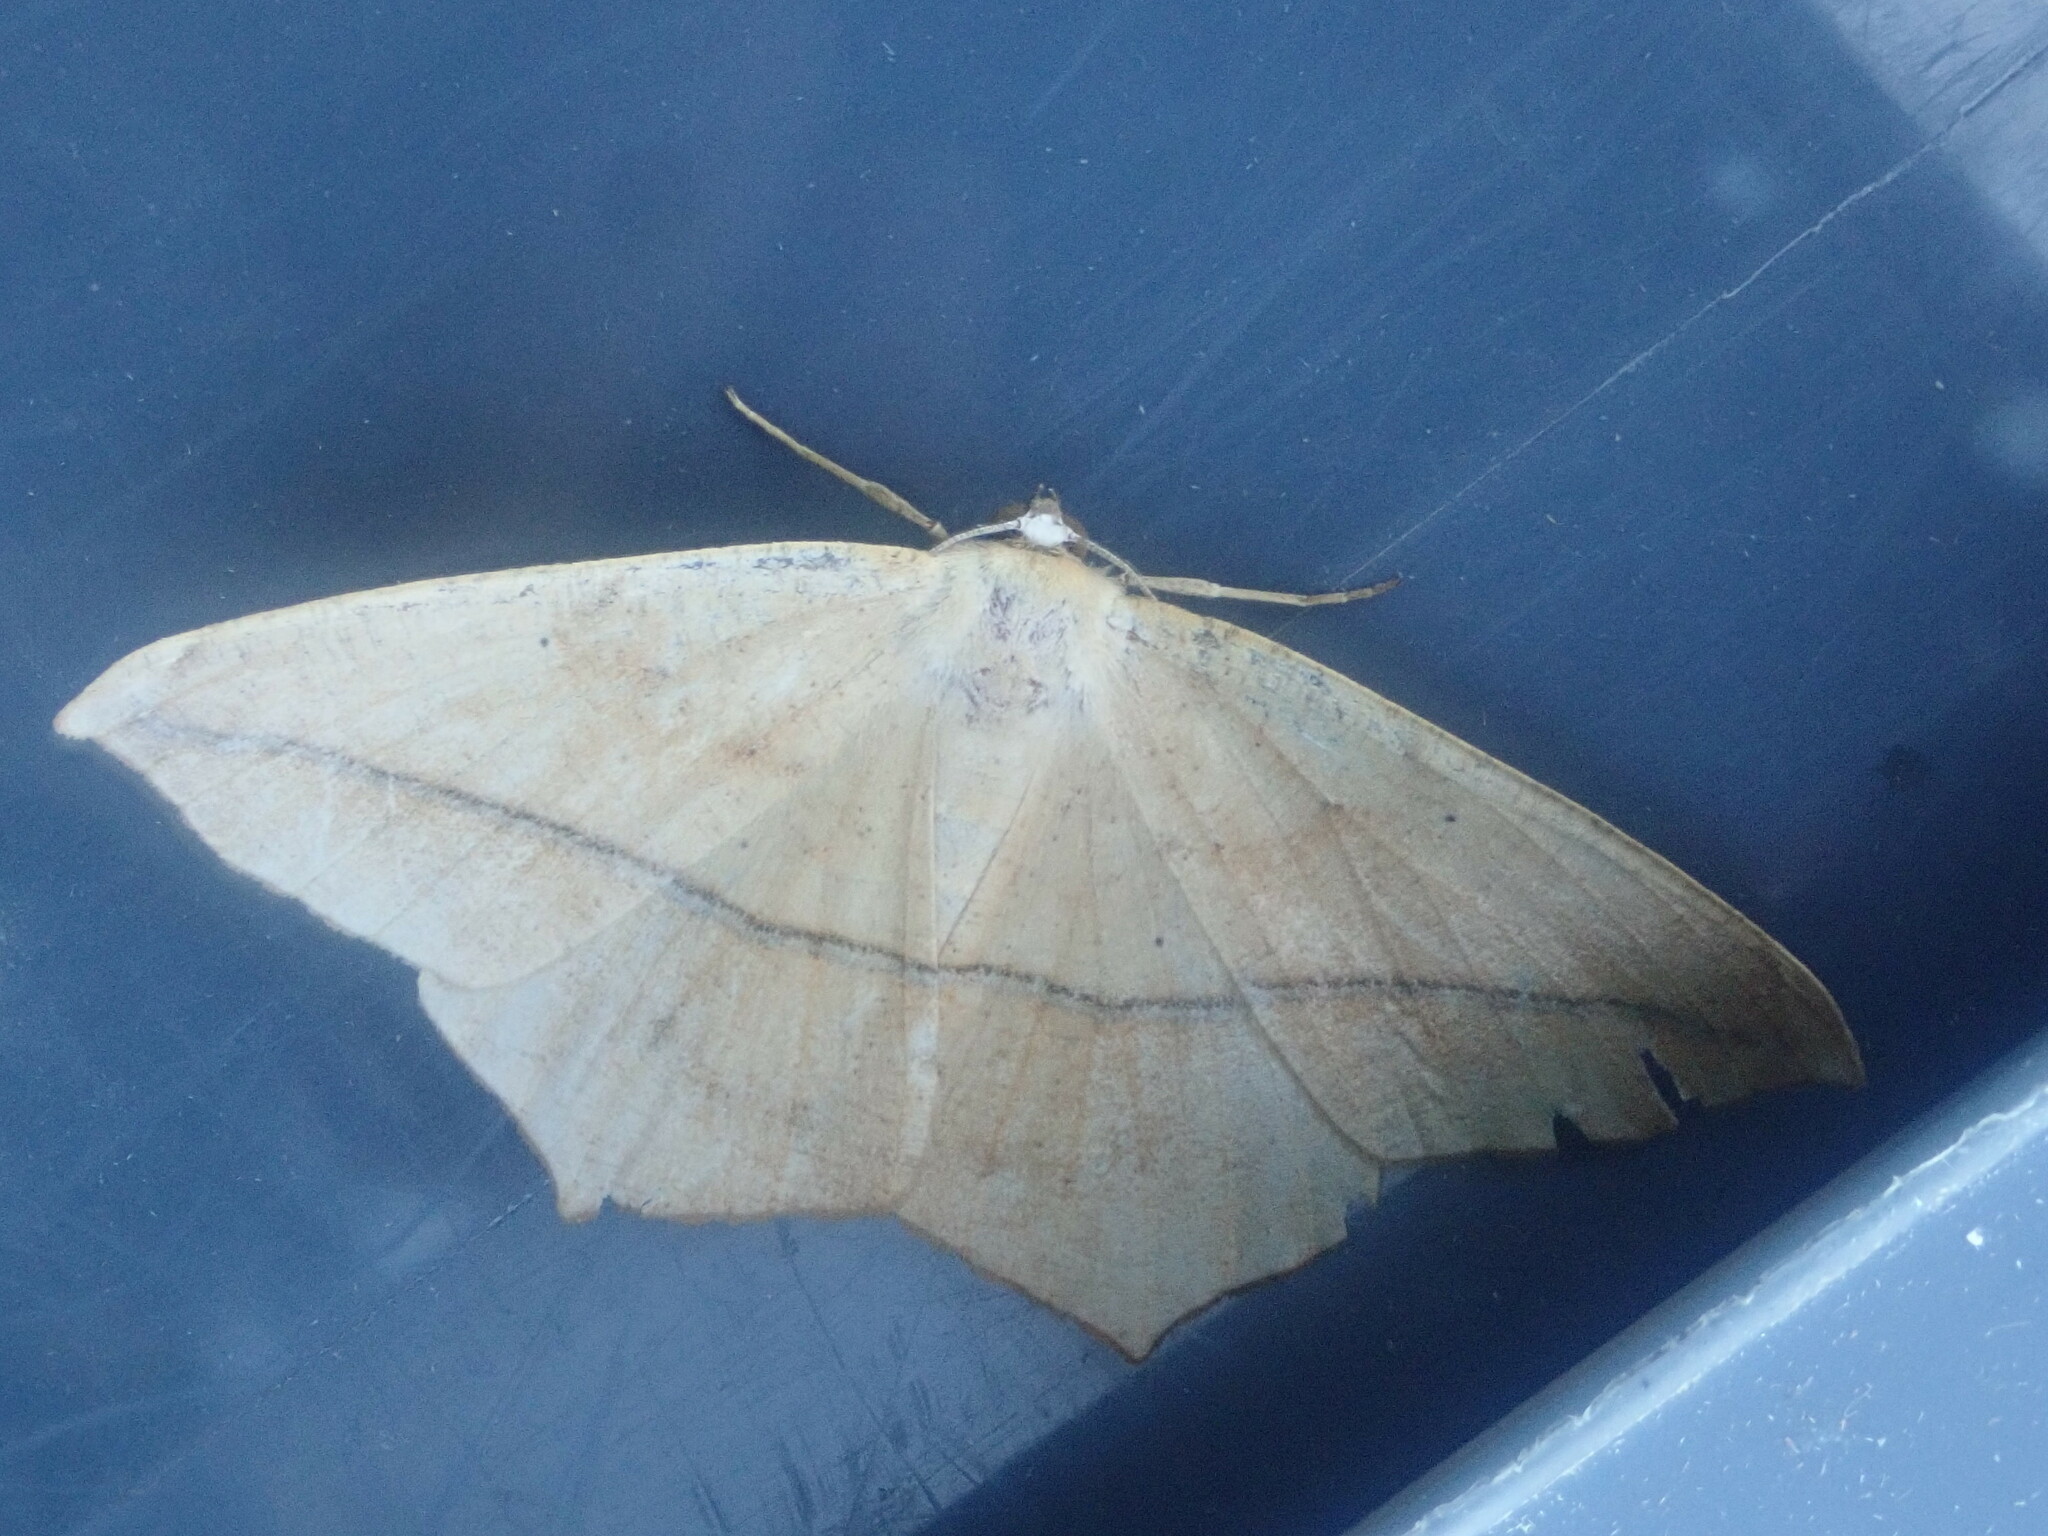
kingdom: Animalia
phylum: Arthropoda
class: Insecta
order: Lepidoptera
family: Geometridae
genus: Prochoerodes
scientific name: Prochoerodes lineola
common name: Large maple spanworm
